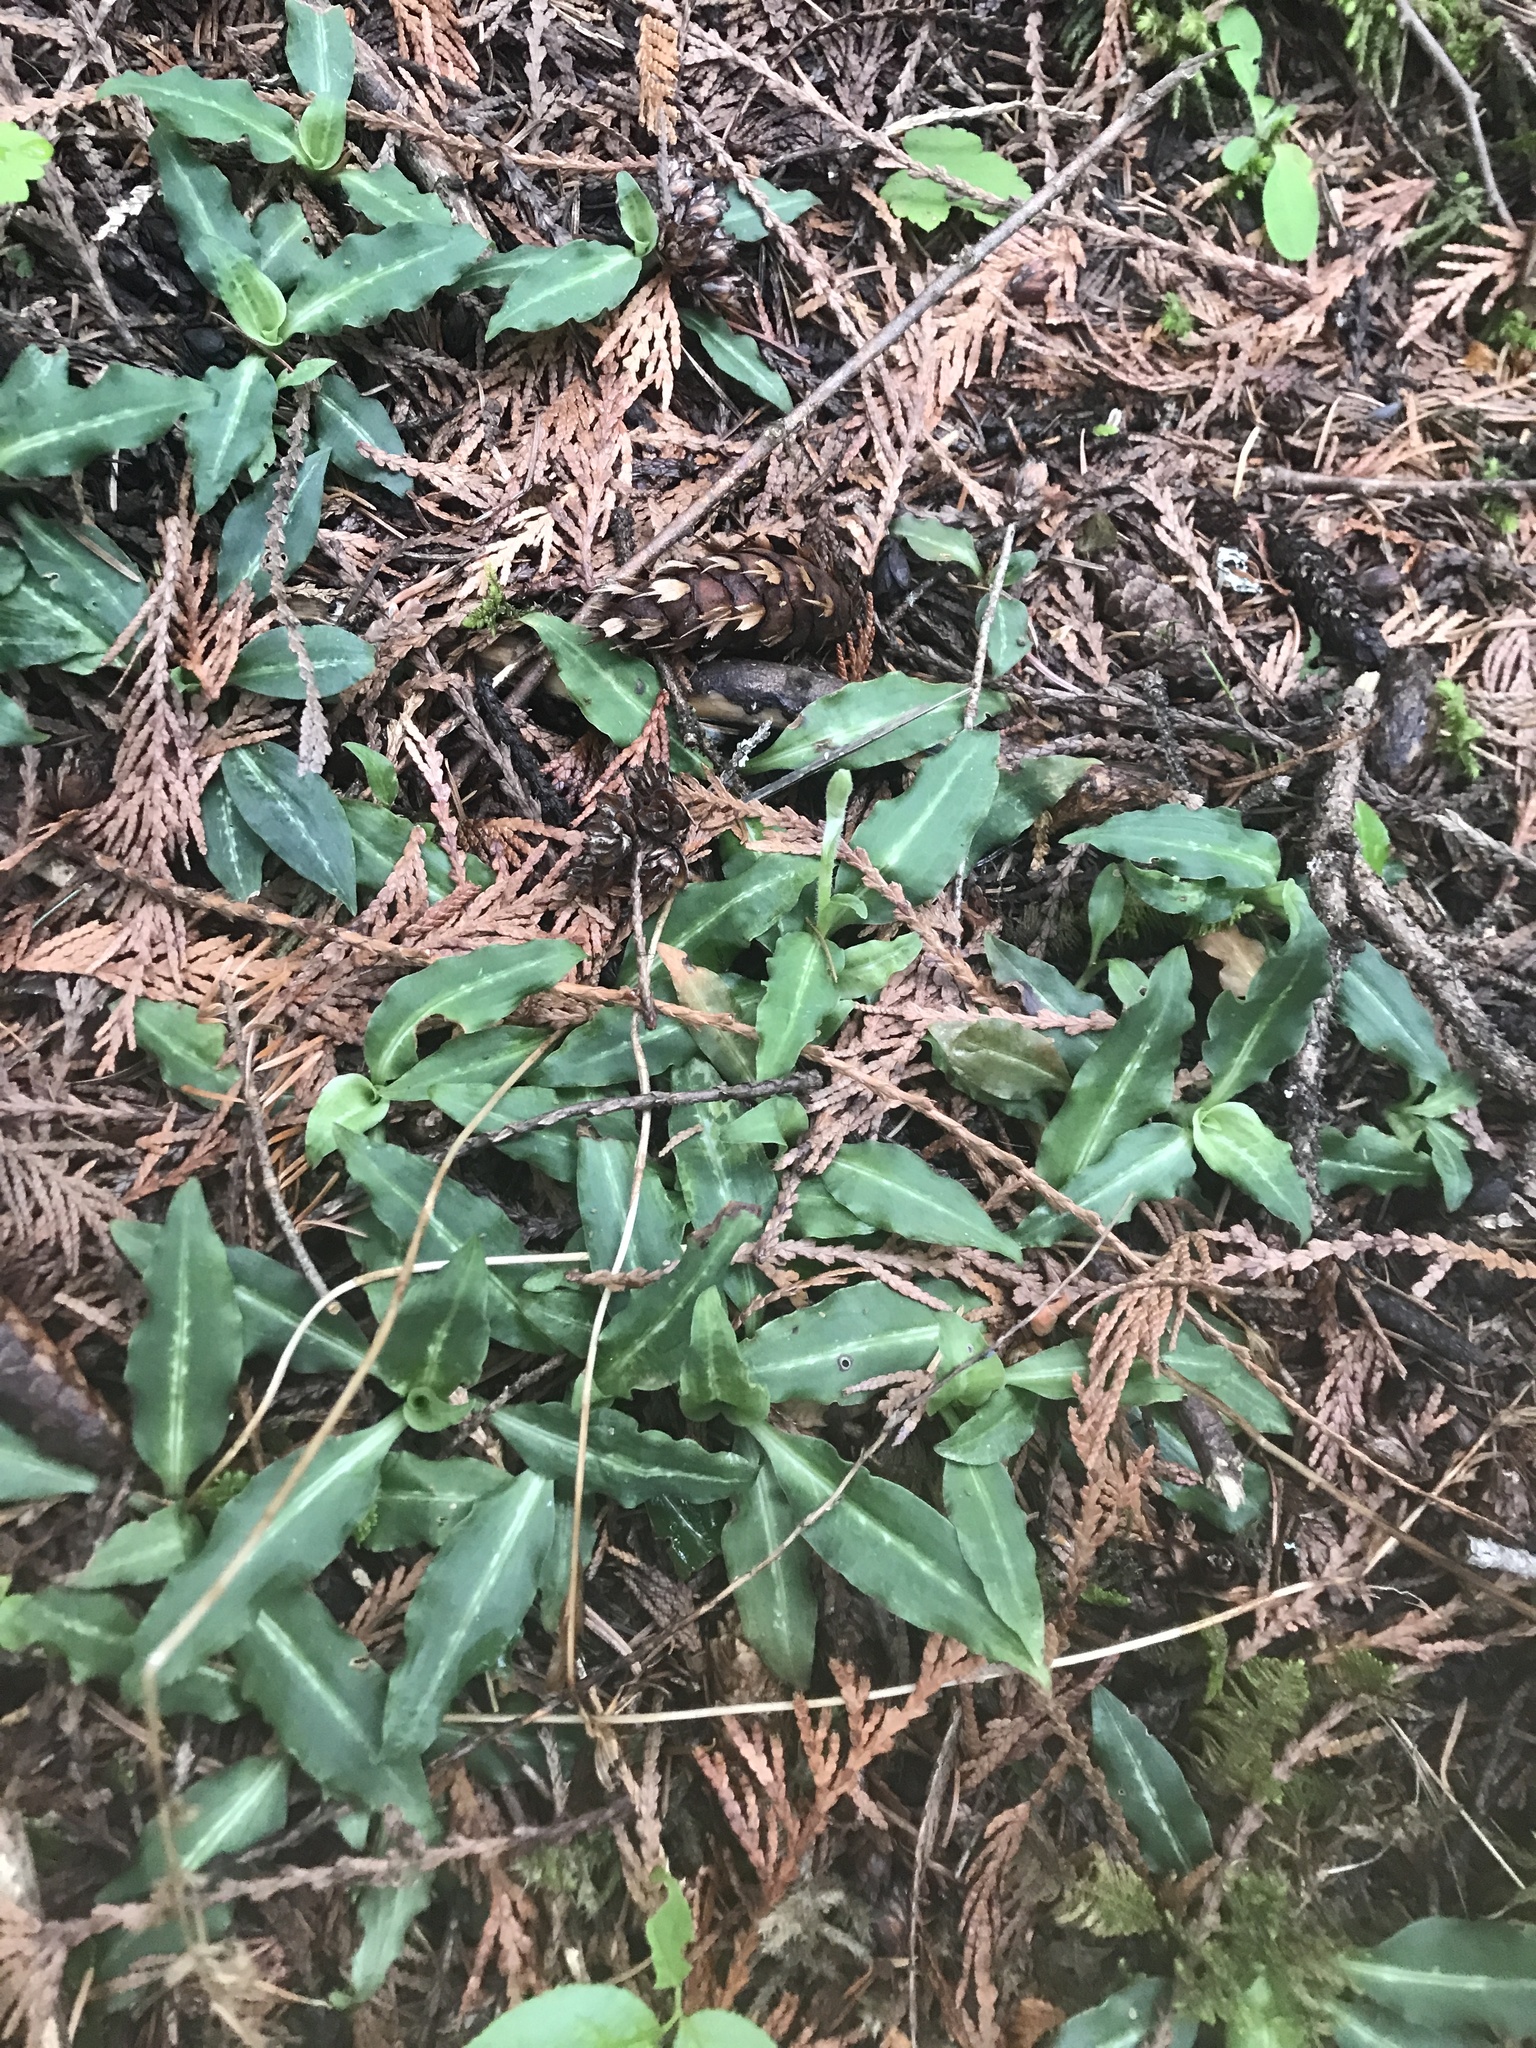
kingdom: Plantae
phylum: Tracheophyta
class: Liliopsida
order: Asparagales
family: Orchidaceae
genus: Goodyera
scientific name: Goodyera oblongifolia
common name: Giant rattlesnake-plantain
